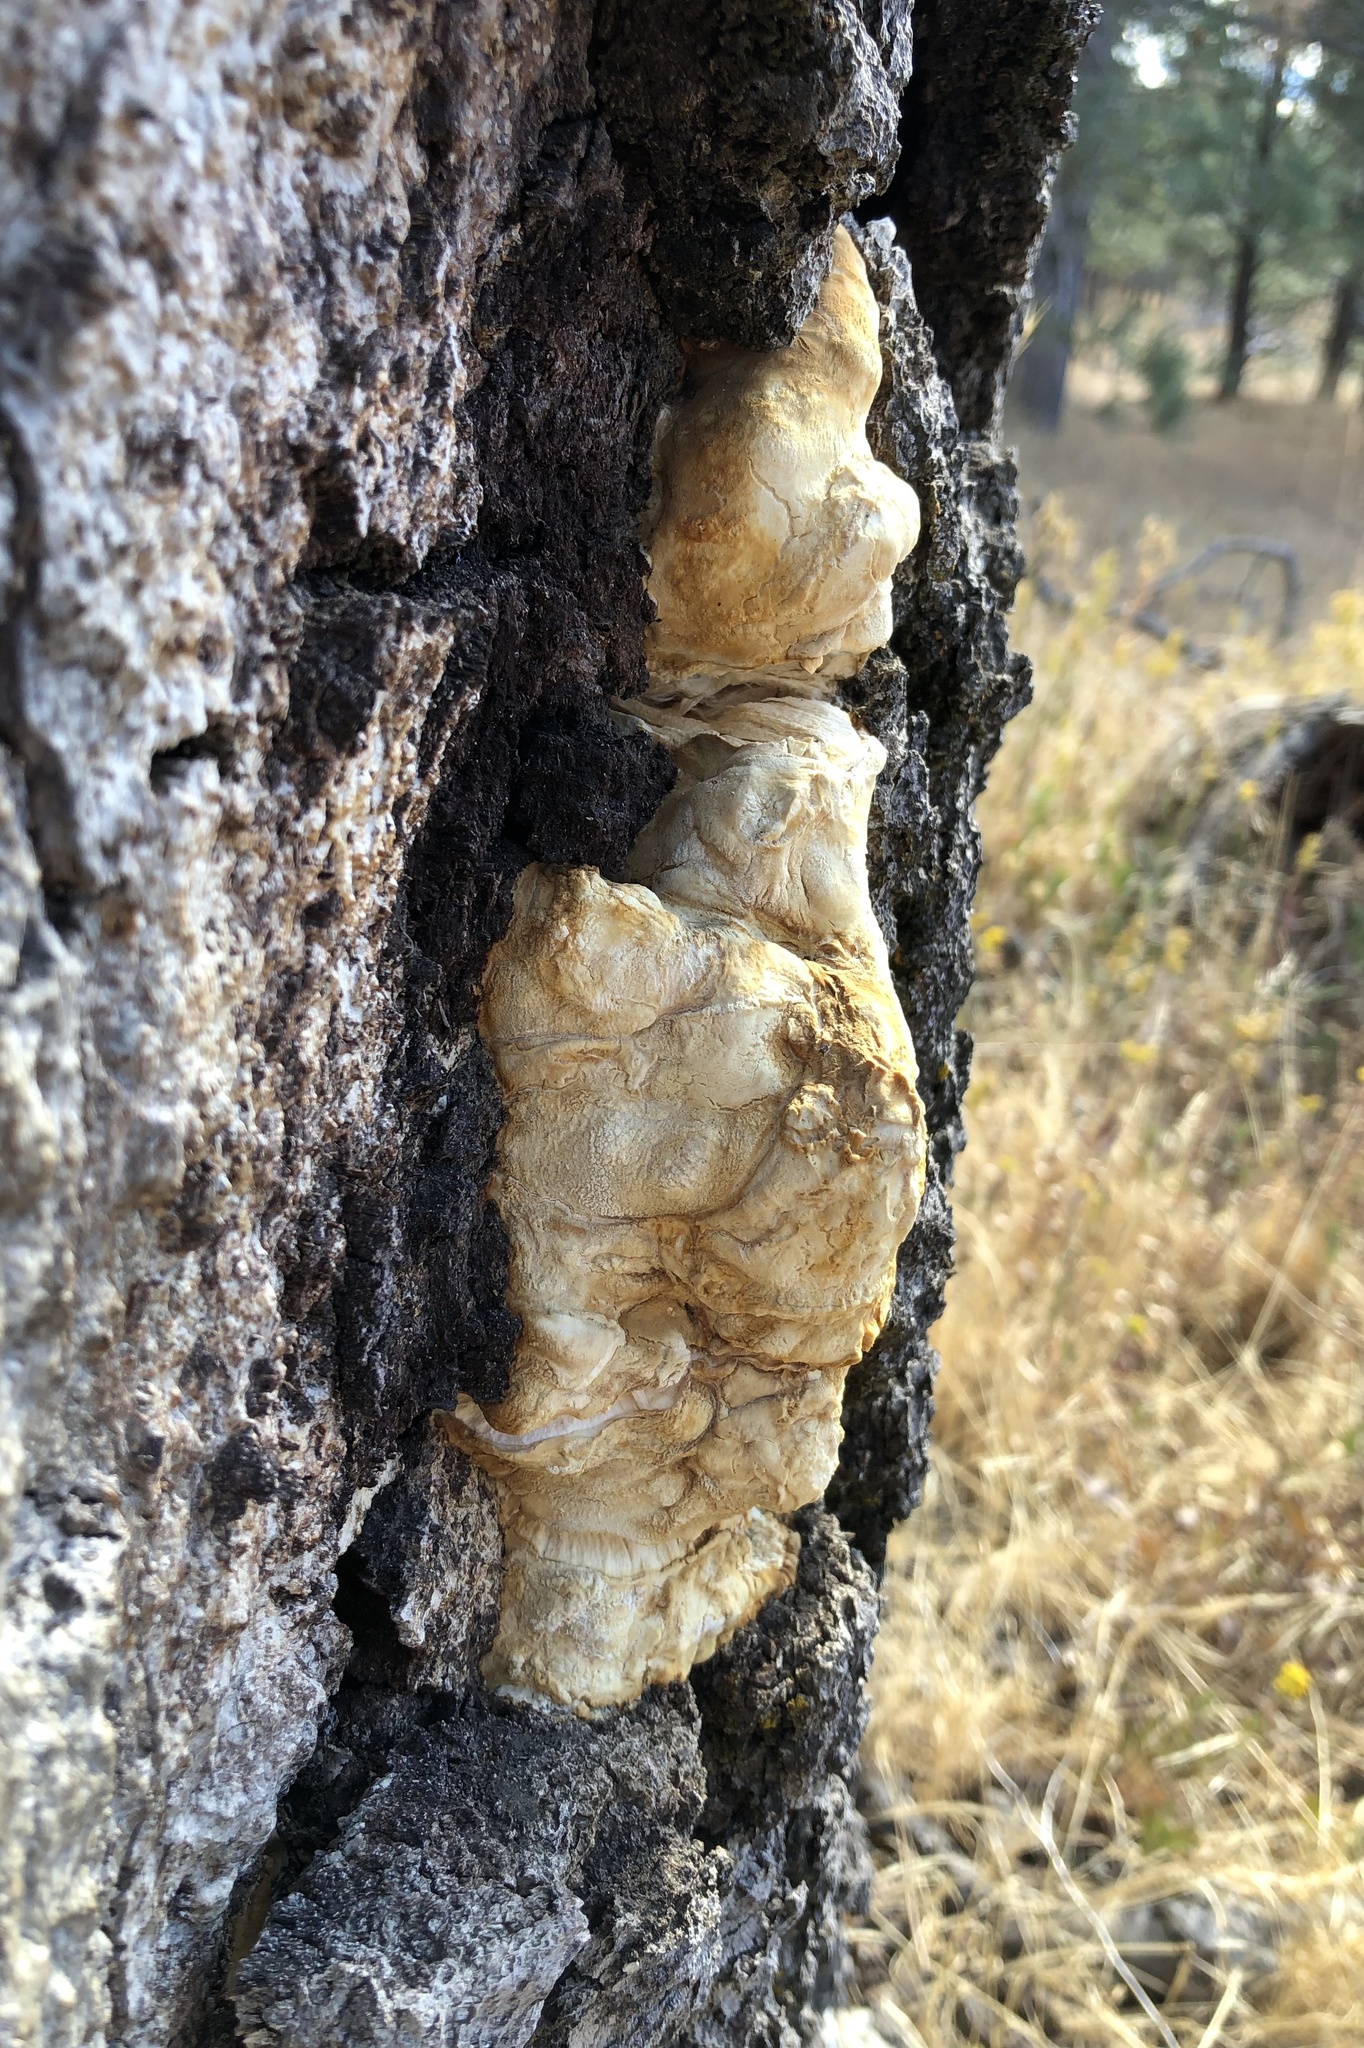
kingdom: Fungi
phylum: Basidiomycota
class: Agaricomycetes
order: Polyporales
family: Laetiporaceae
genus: Laetiporus
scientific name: Laetiporus gilbertsonii
